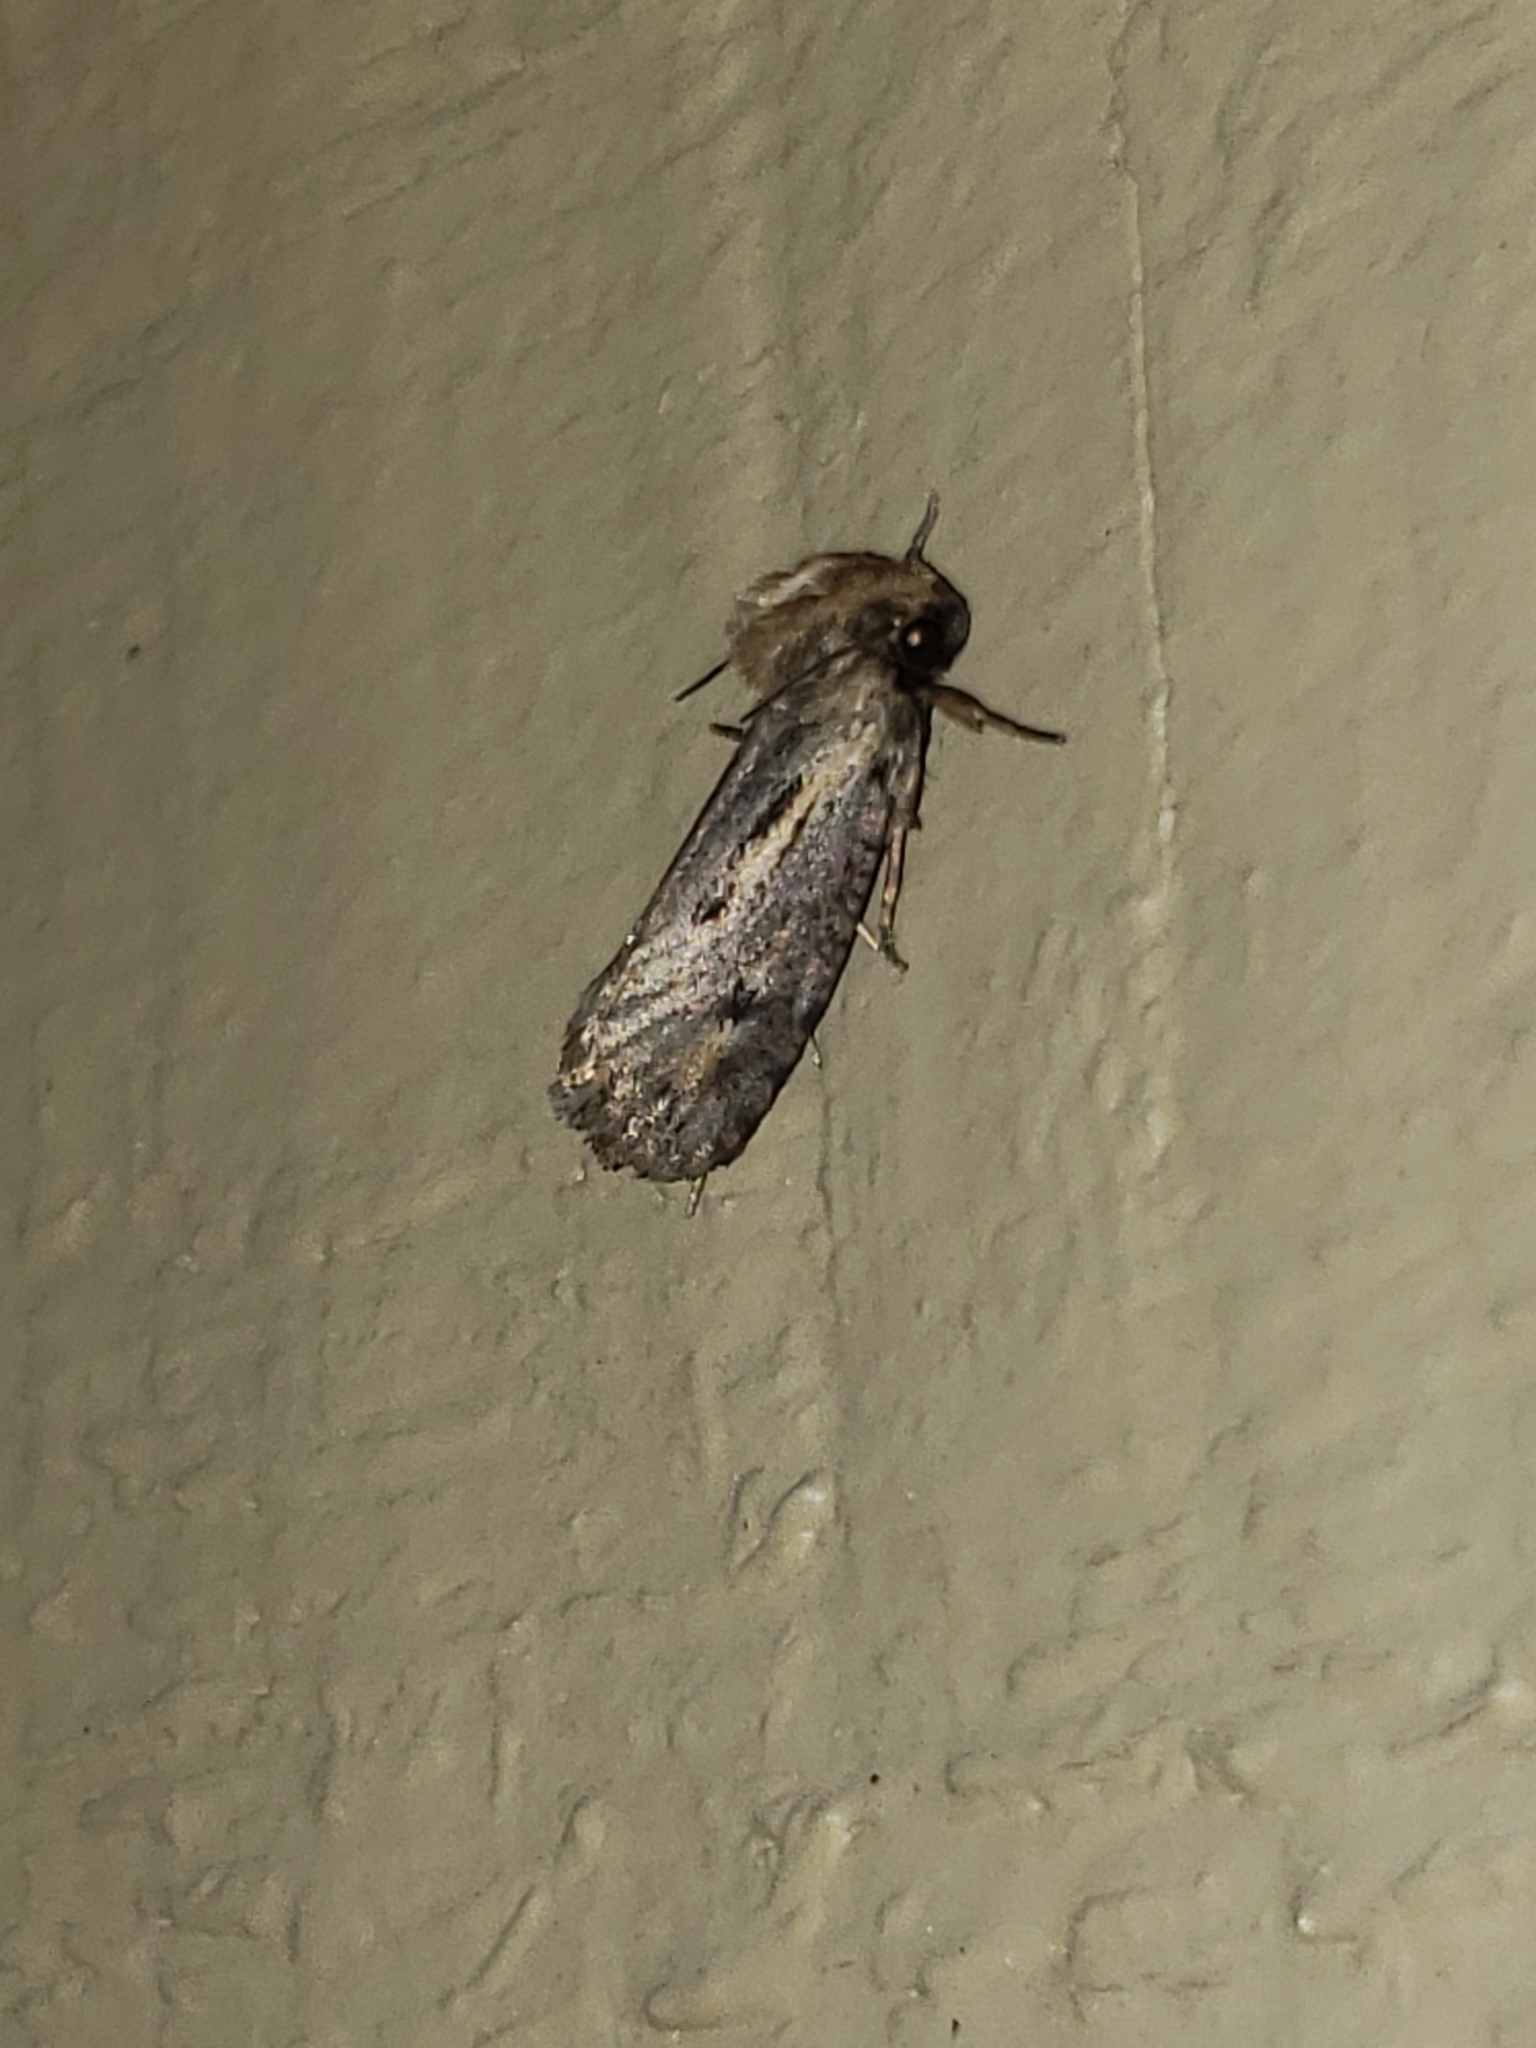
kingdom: Animalia
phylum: Arthropoda
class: Insecta
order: Lepidoptera
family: Tineidae
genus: Acrolophus
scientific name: Acrolophus popeanella
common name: Clemens' grass tubeworm moth
